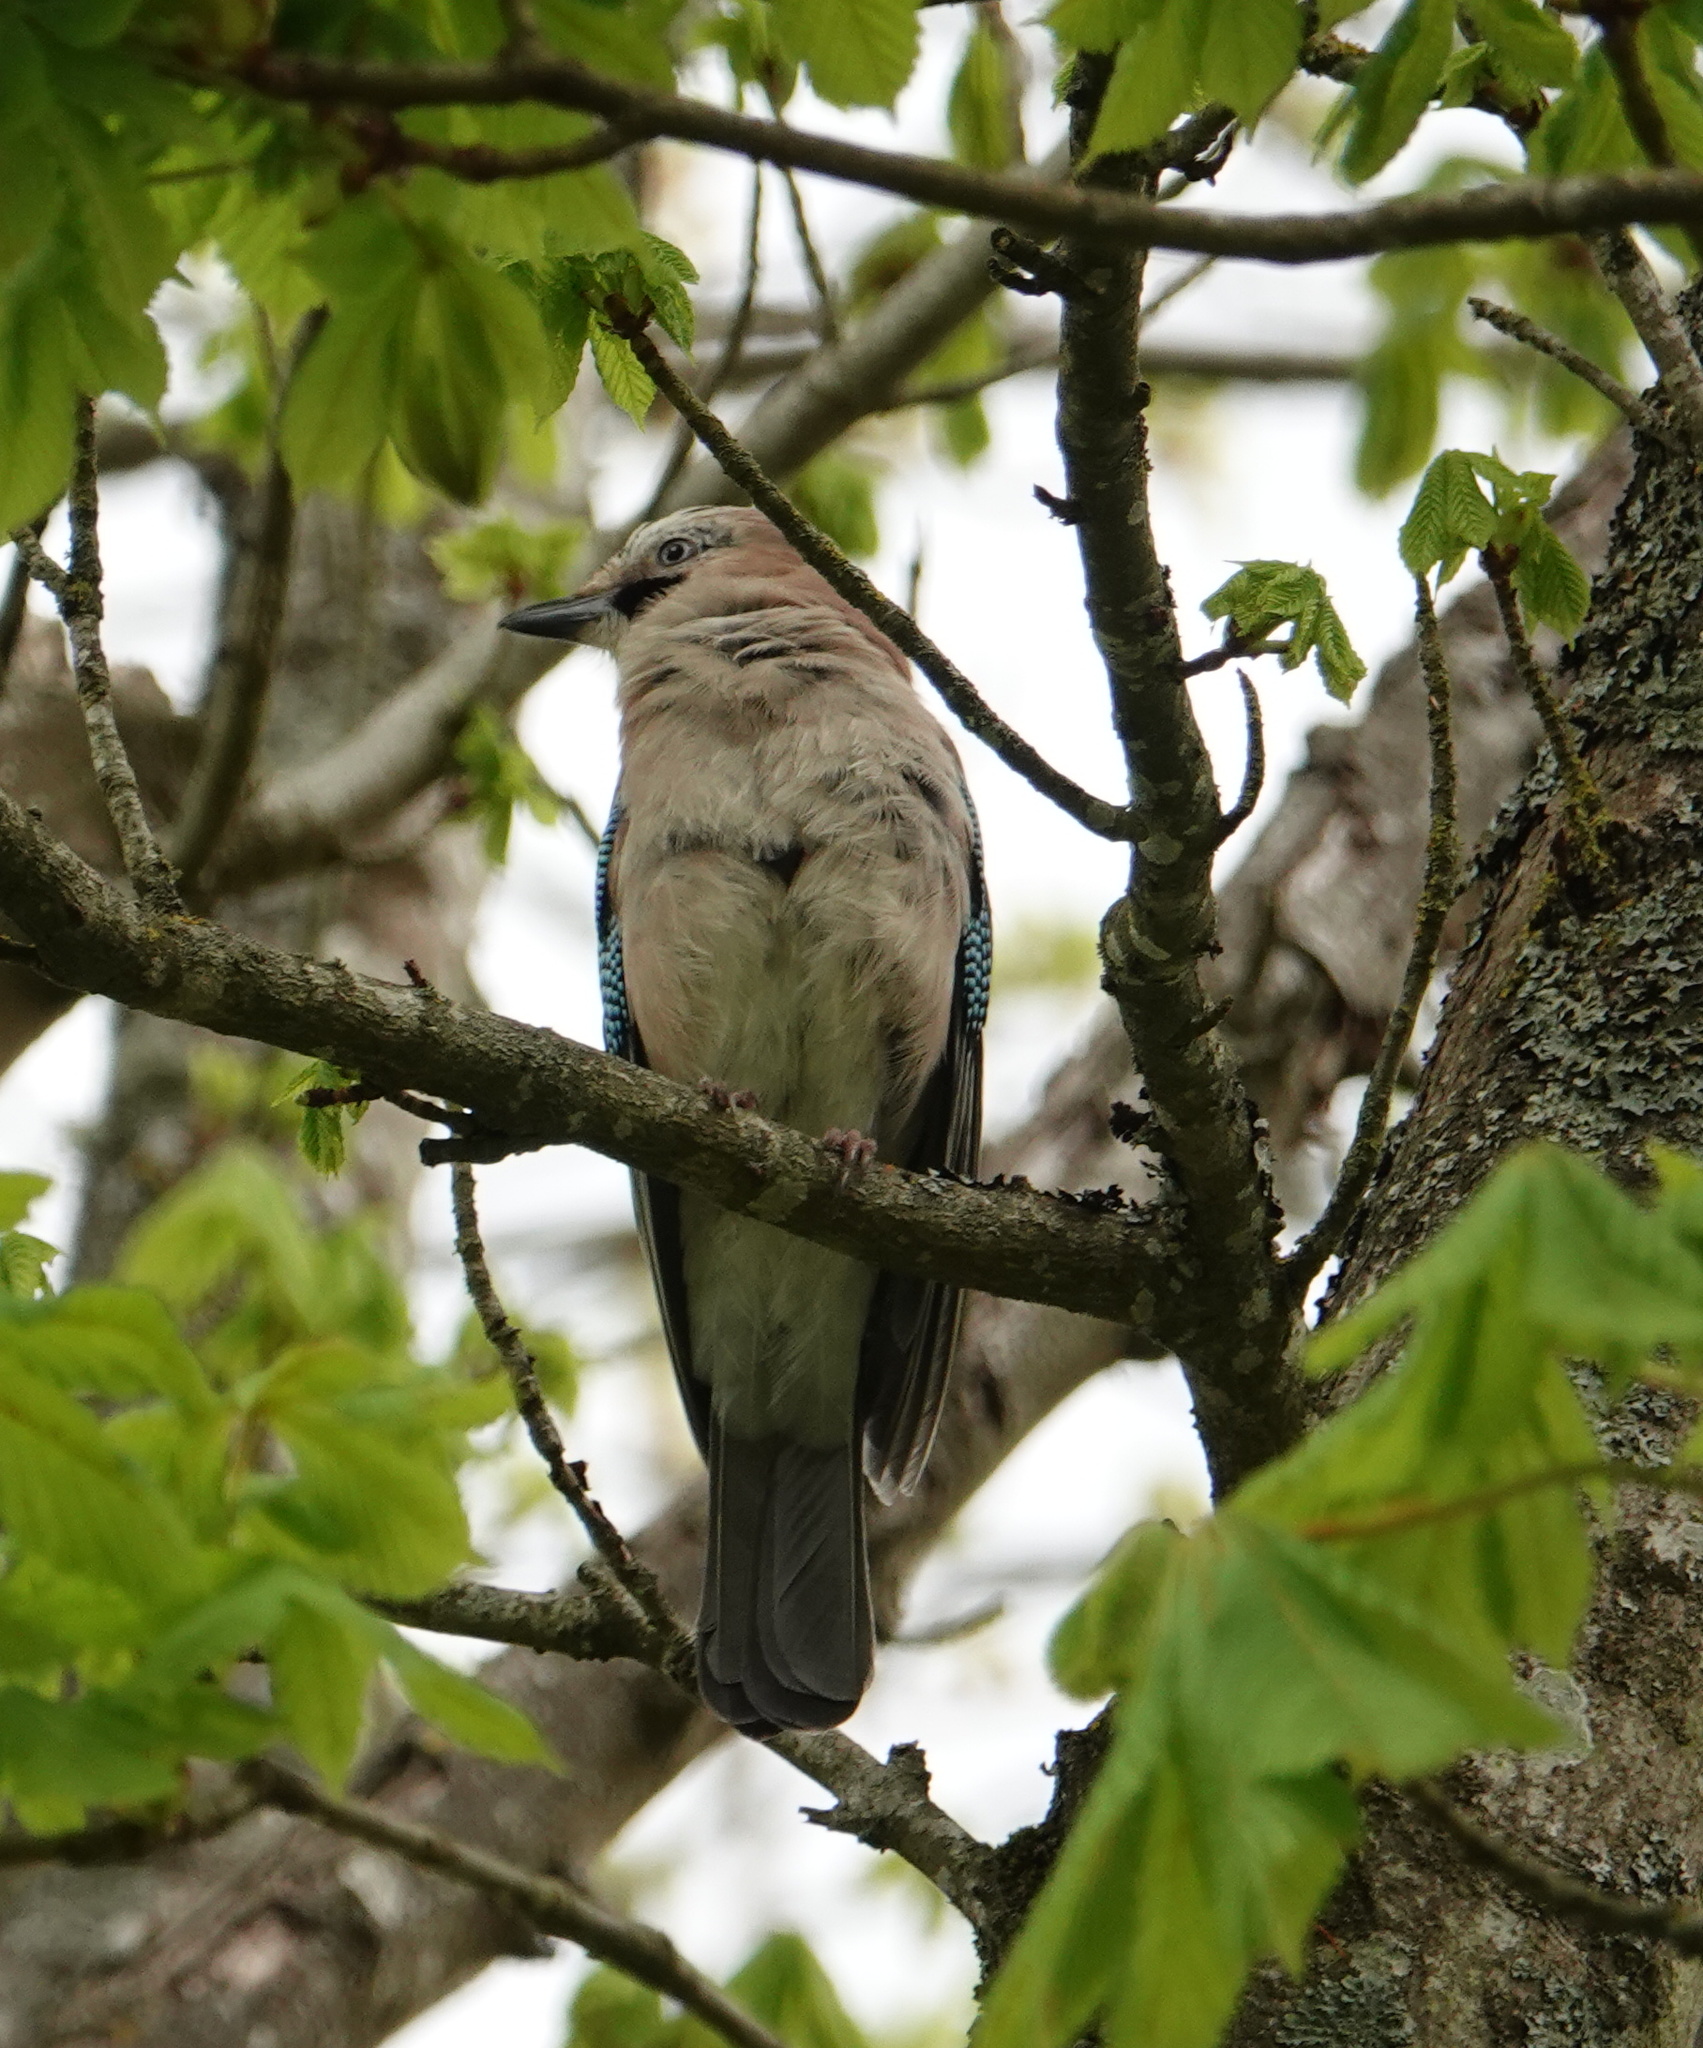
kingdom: Animalia
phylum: Chordata
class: Aves
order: Passeriformes
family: Corvidae
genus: Garrulus
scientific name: Garrulus glandarius
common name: Eurasian jay
